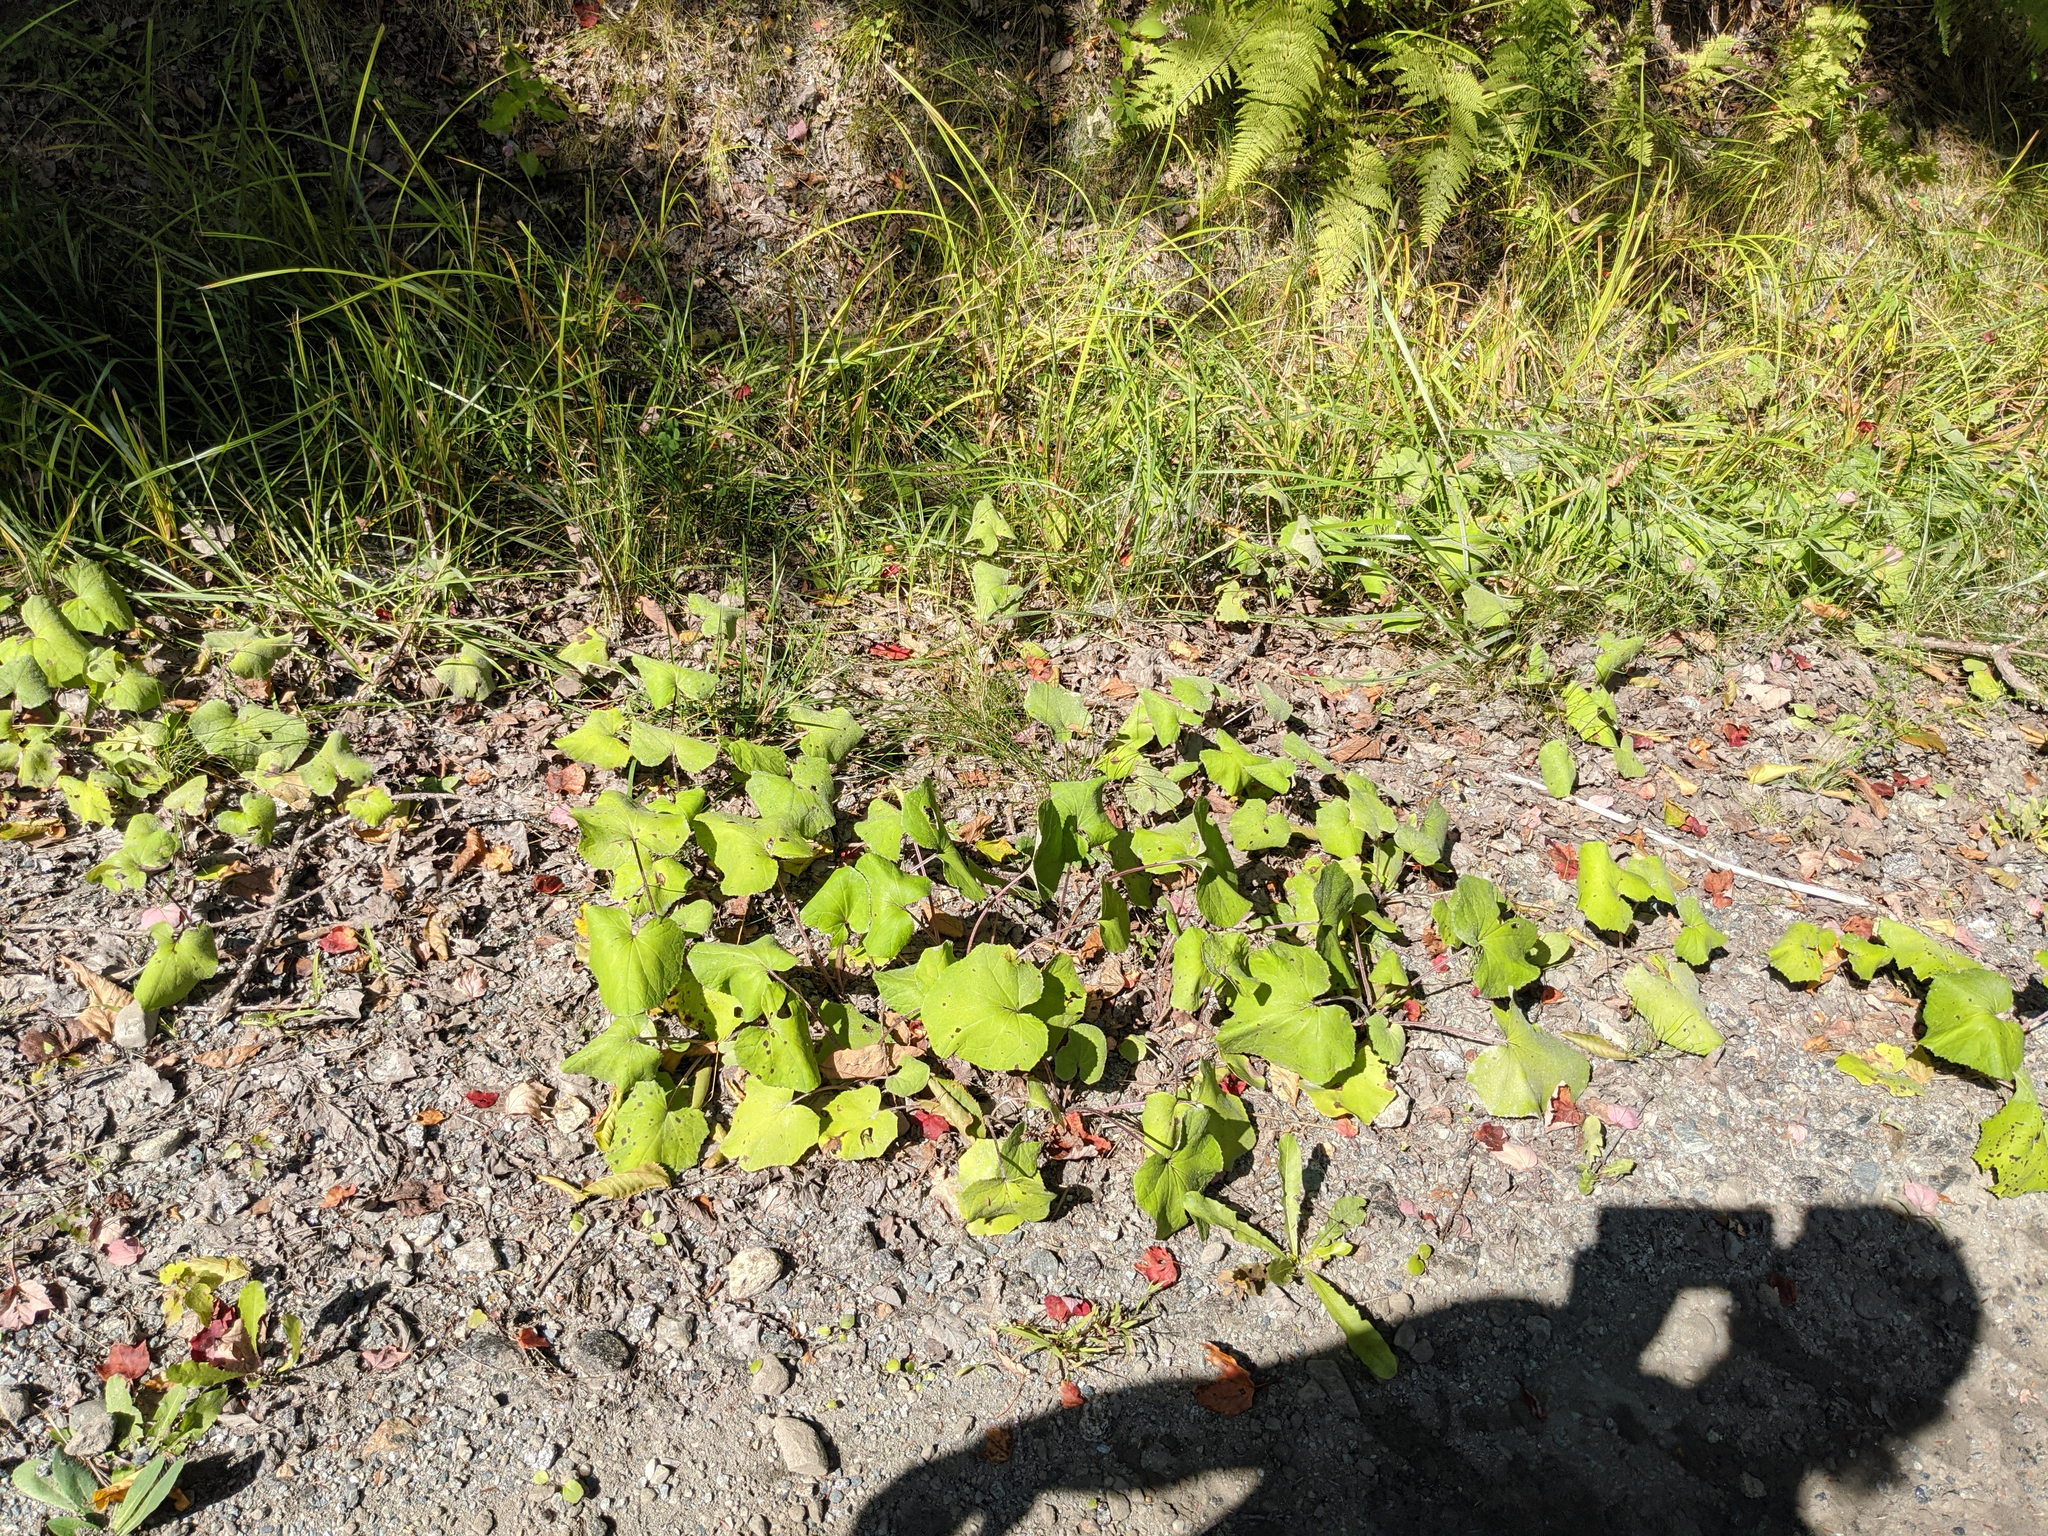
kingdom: Plantae
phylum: Tracheophyta
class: Magnoliopsida
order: Asterales
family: Asteraceae
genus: Tussilago
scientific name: Tussilago farfara
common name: Coltsfoot
